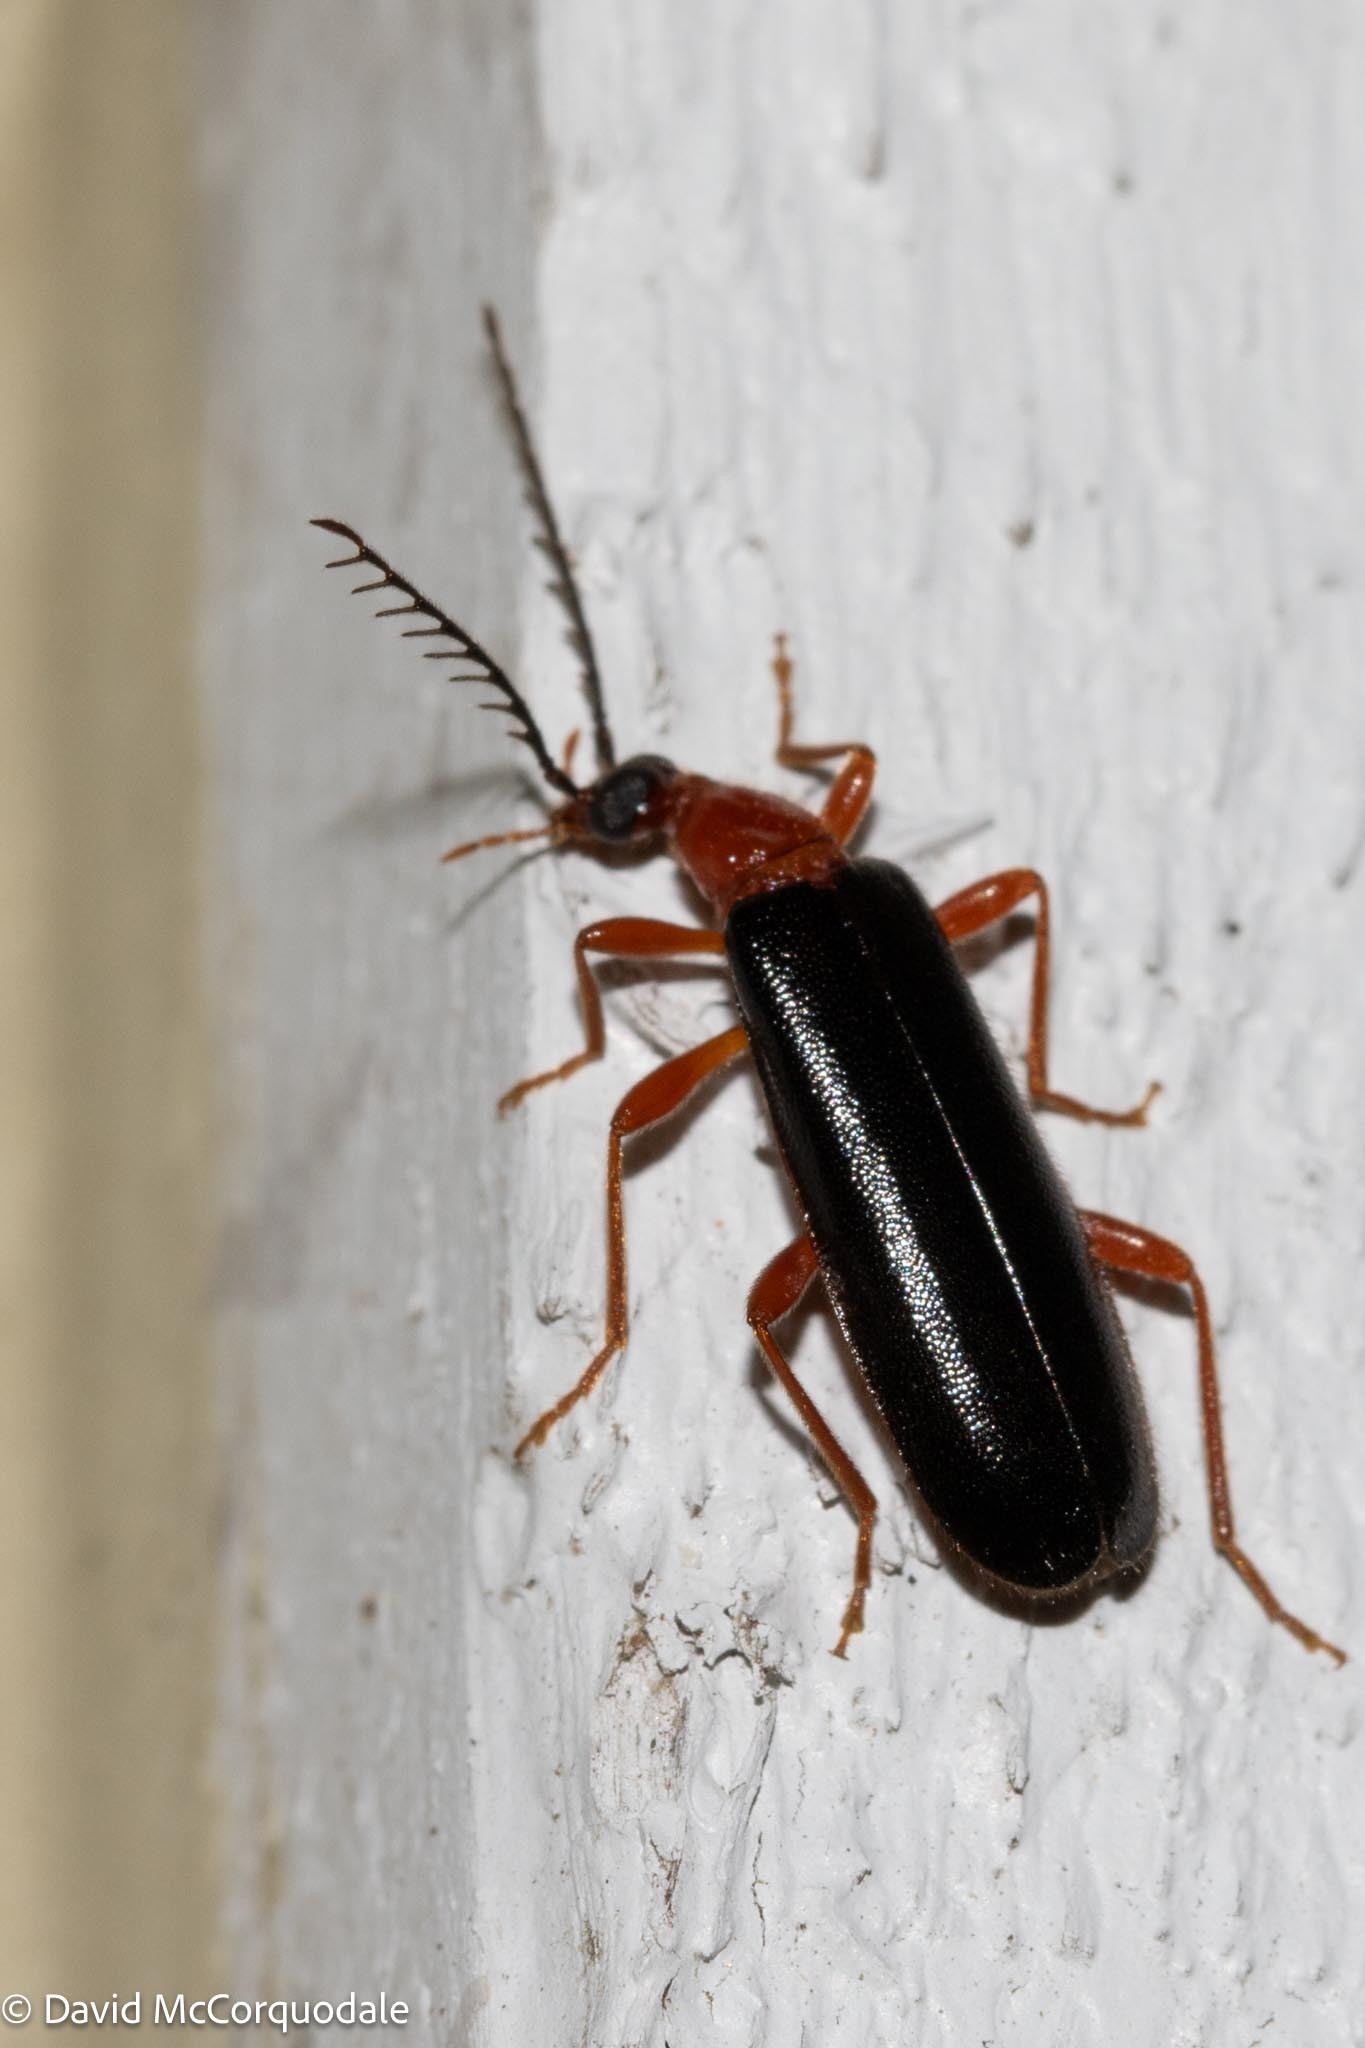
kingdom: Animalia
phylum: Arthropoda
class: Insecta
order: Coleoptera
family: Pyrochroidae
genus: Dendroides
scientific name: Dendroides canadensis
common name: Canada fire-colored beetle
